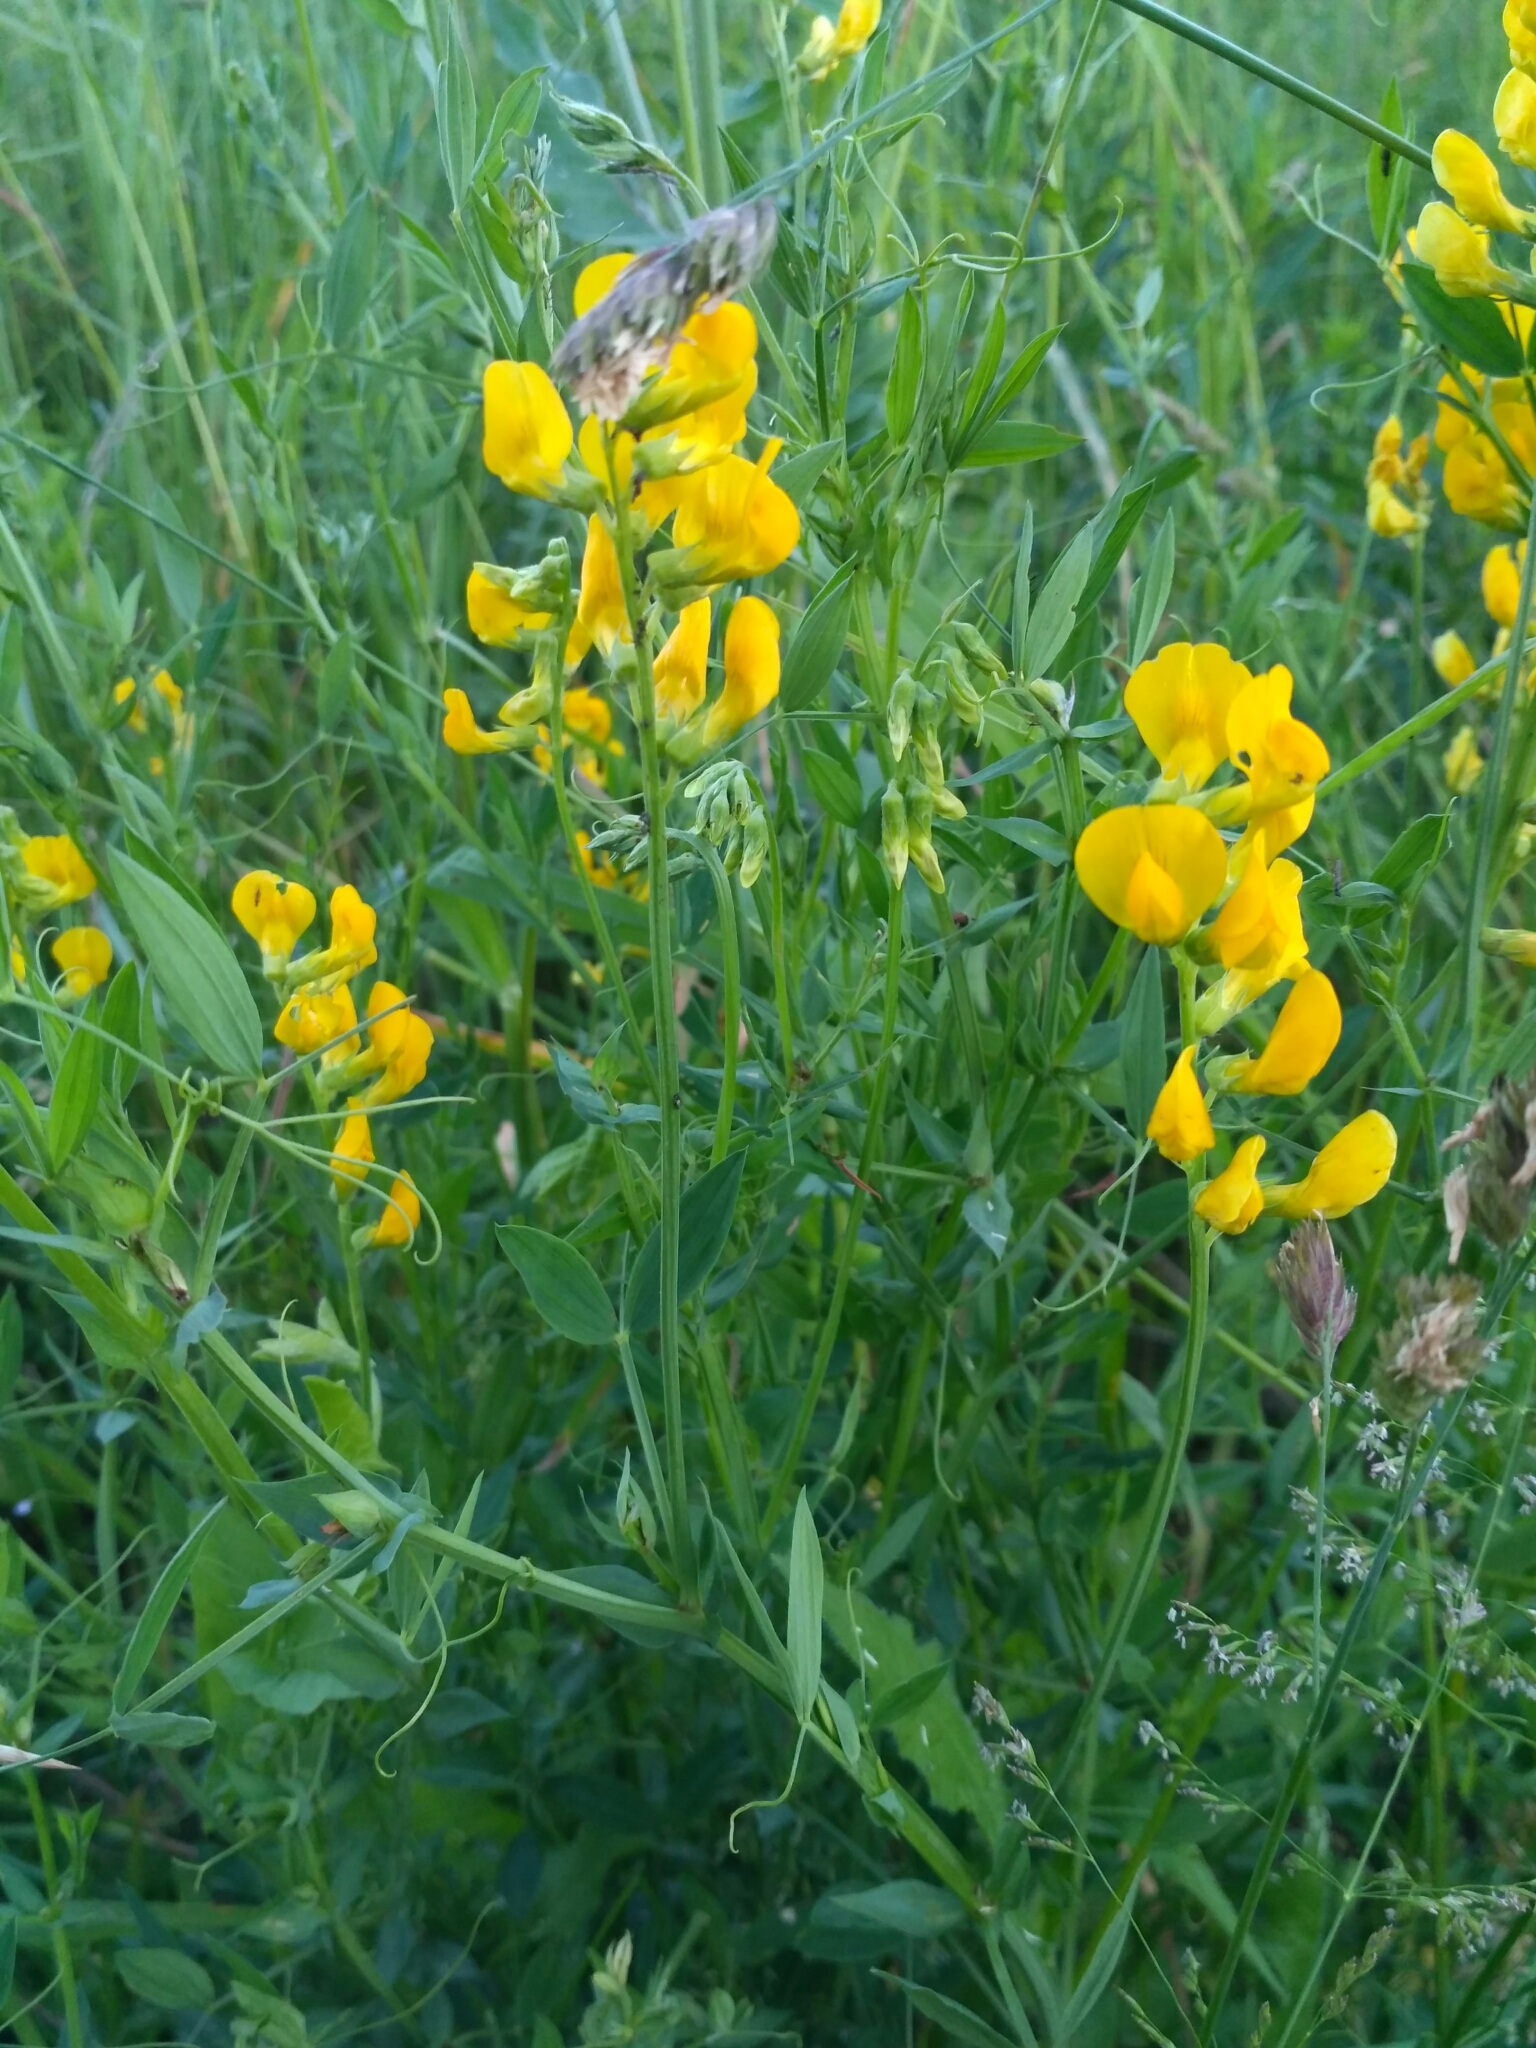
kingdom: Plantae
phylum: Tracheophyta
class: Magnoliopsida
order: Fabales
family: Fabaceae
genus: Lathyrus
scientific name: Lathyrus pratensis
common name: Meadow vetchling
